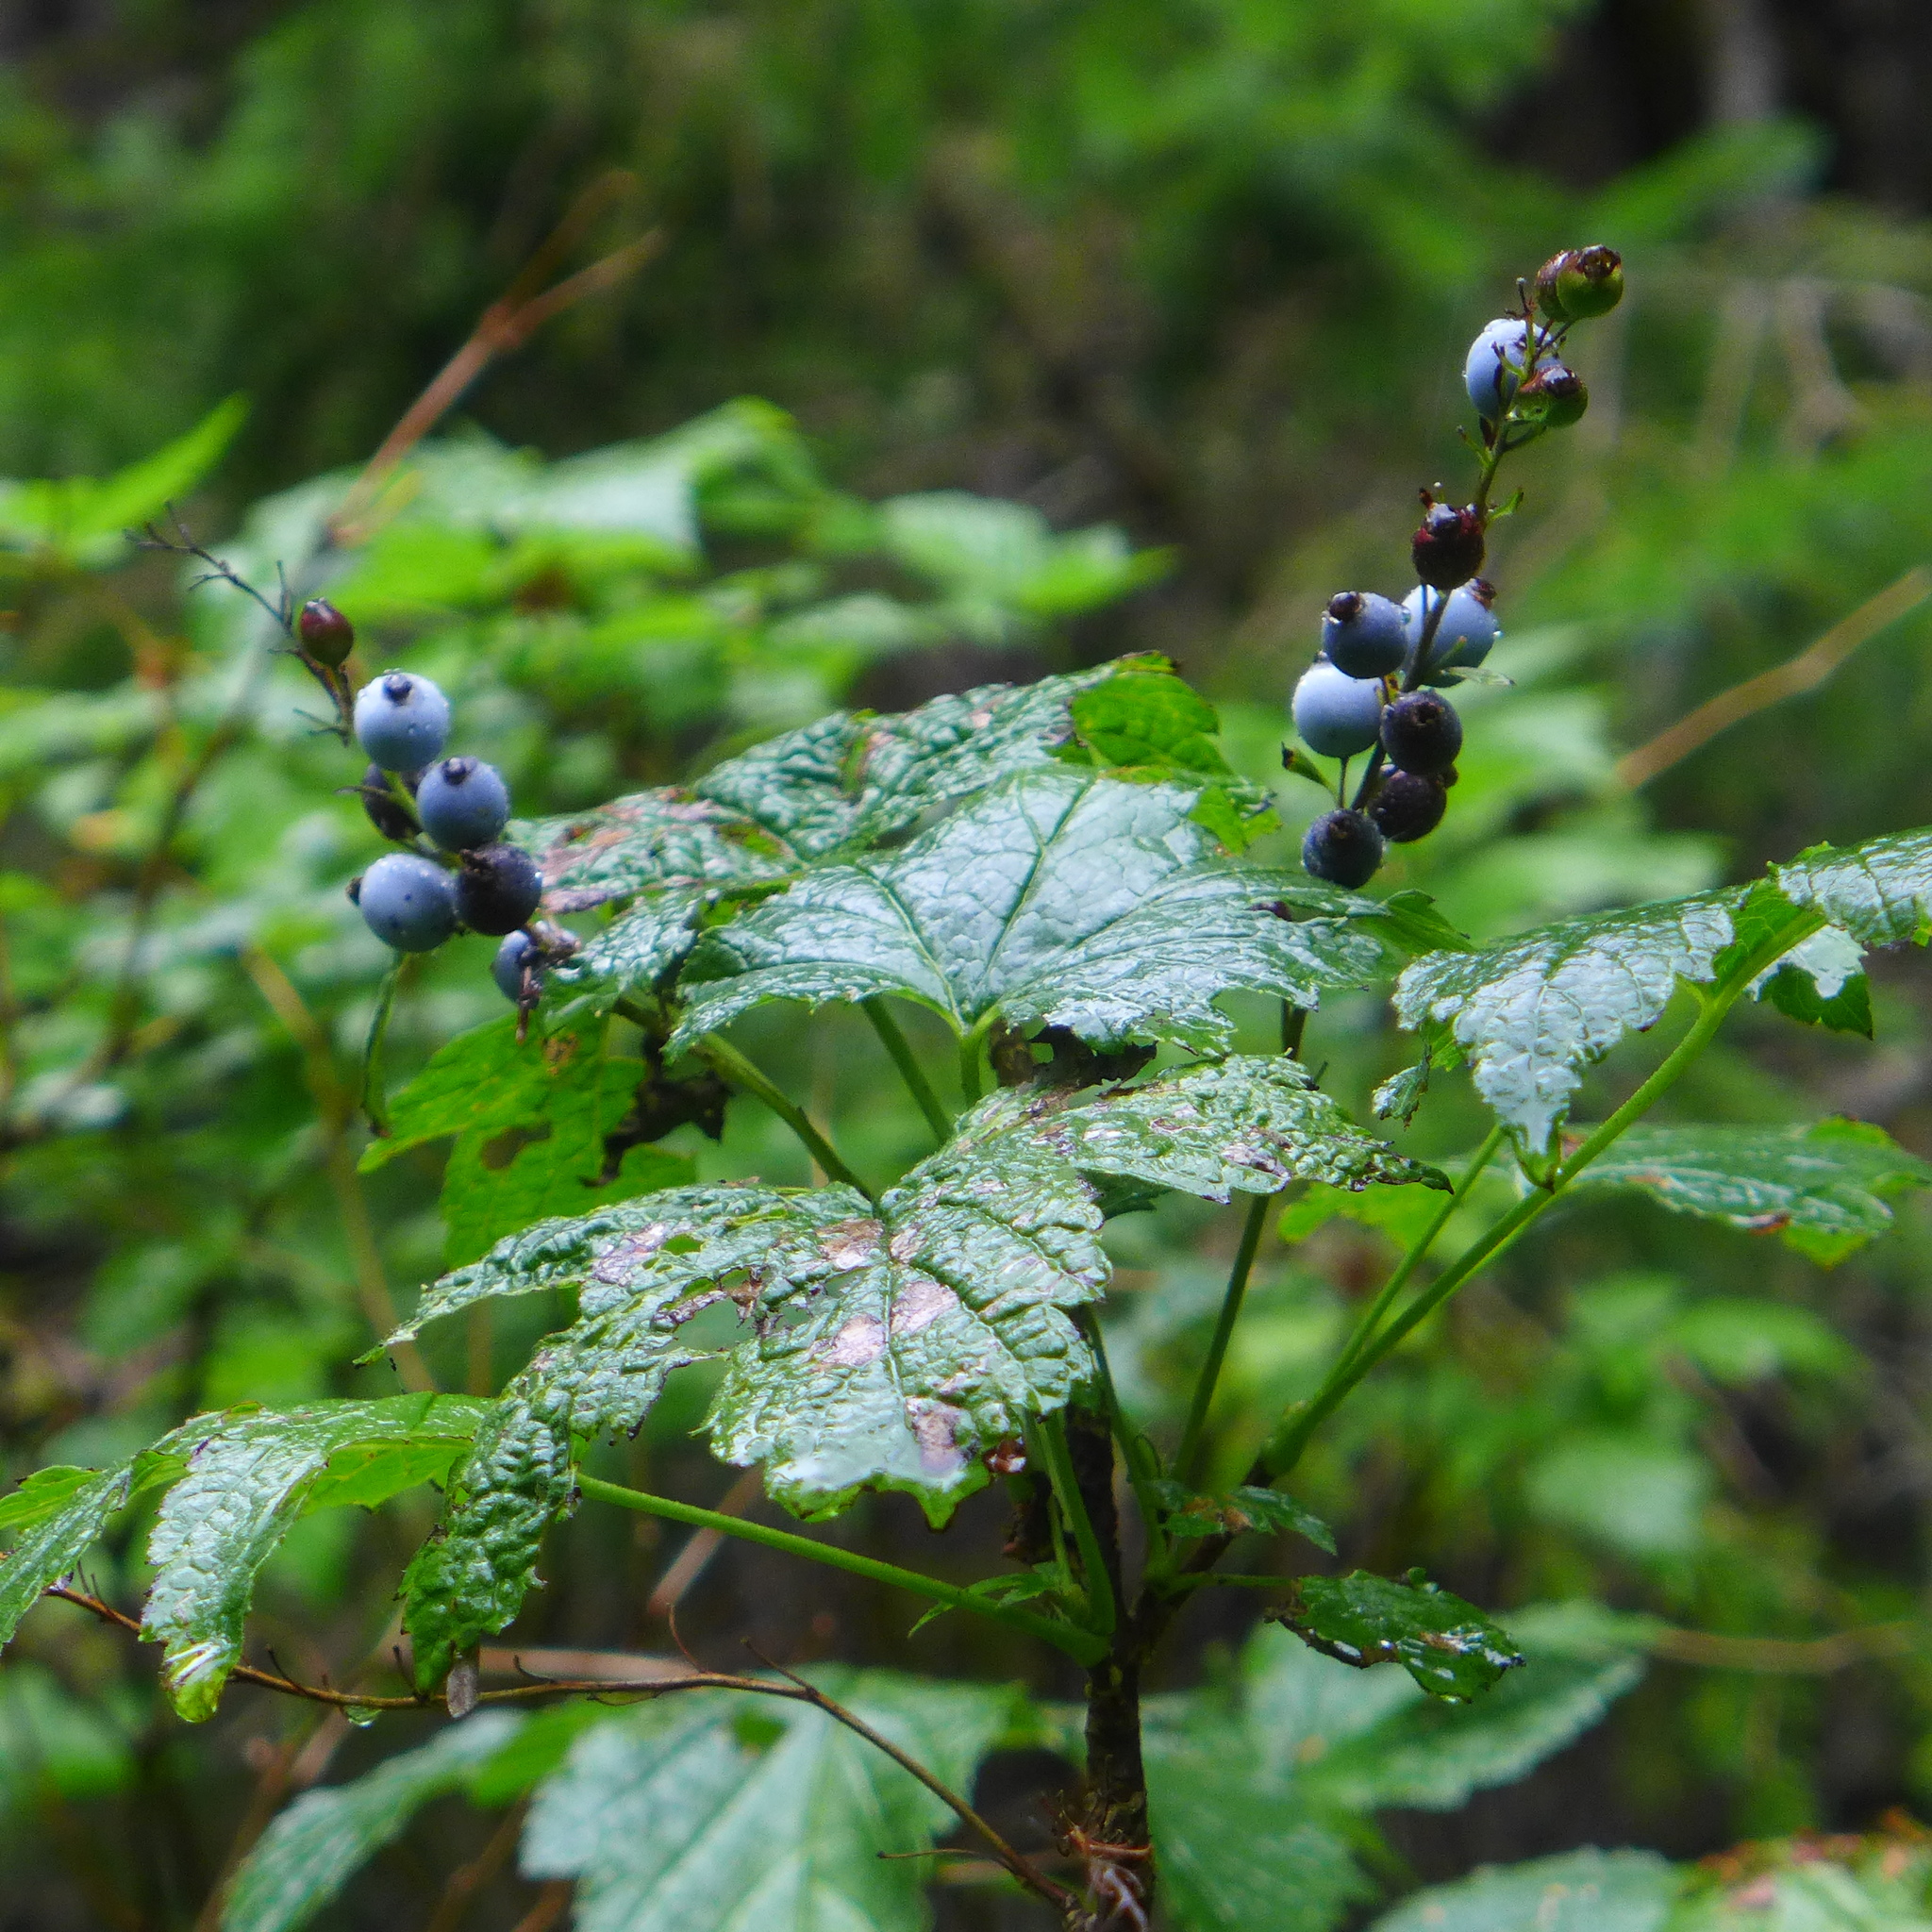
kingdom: Plantae
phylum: Tracheophyta
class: Magnoliopsida
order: Saxifragales
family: Grossulariaceae
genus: Ribes
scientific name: Ribes bracteosum
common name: California black currant
